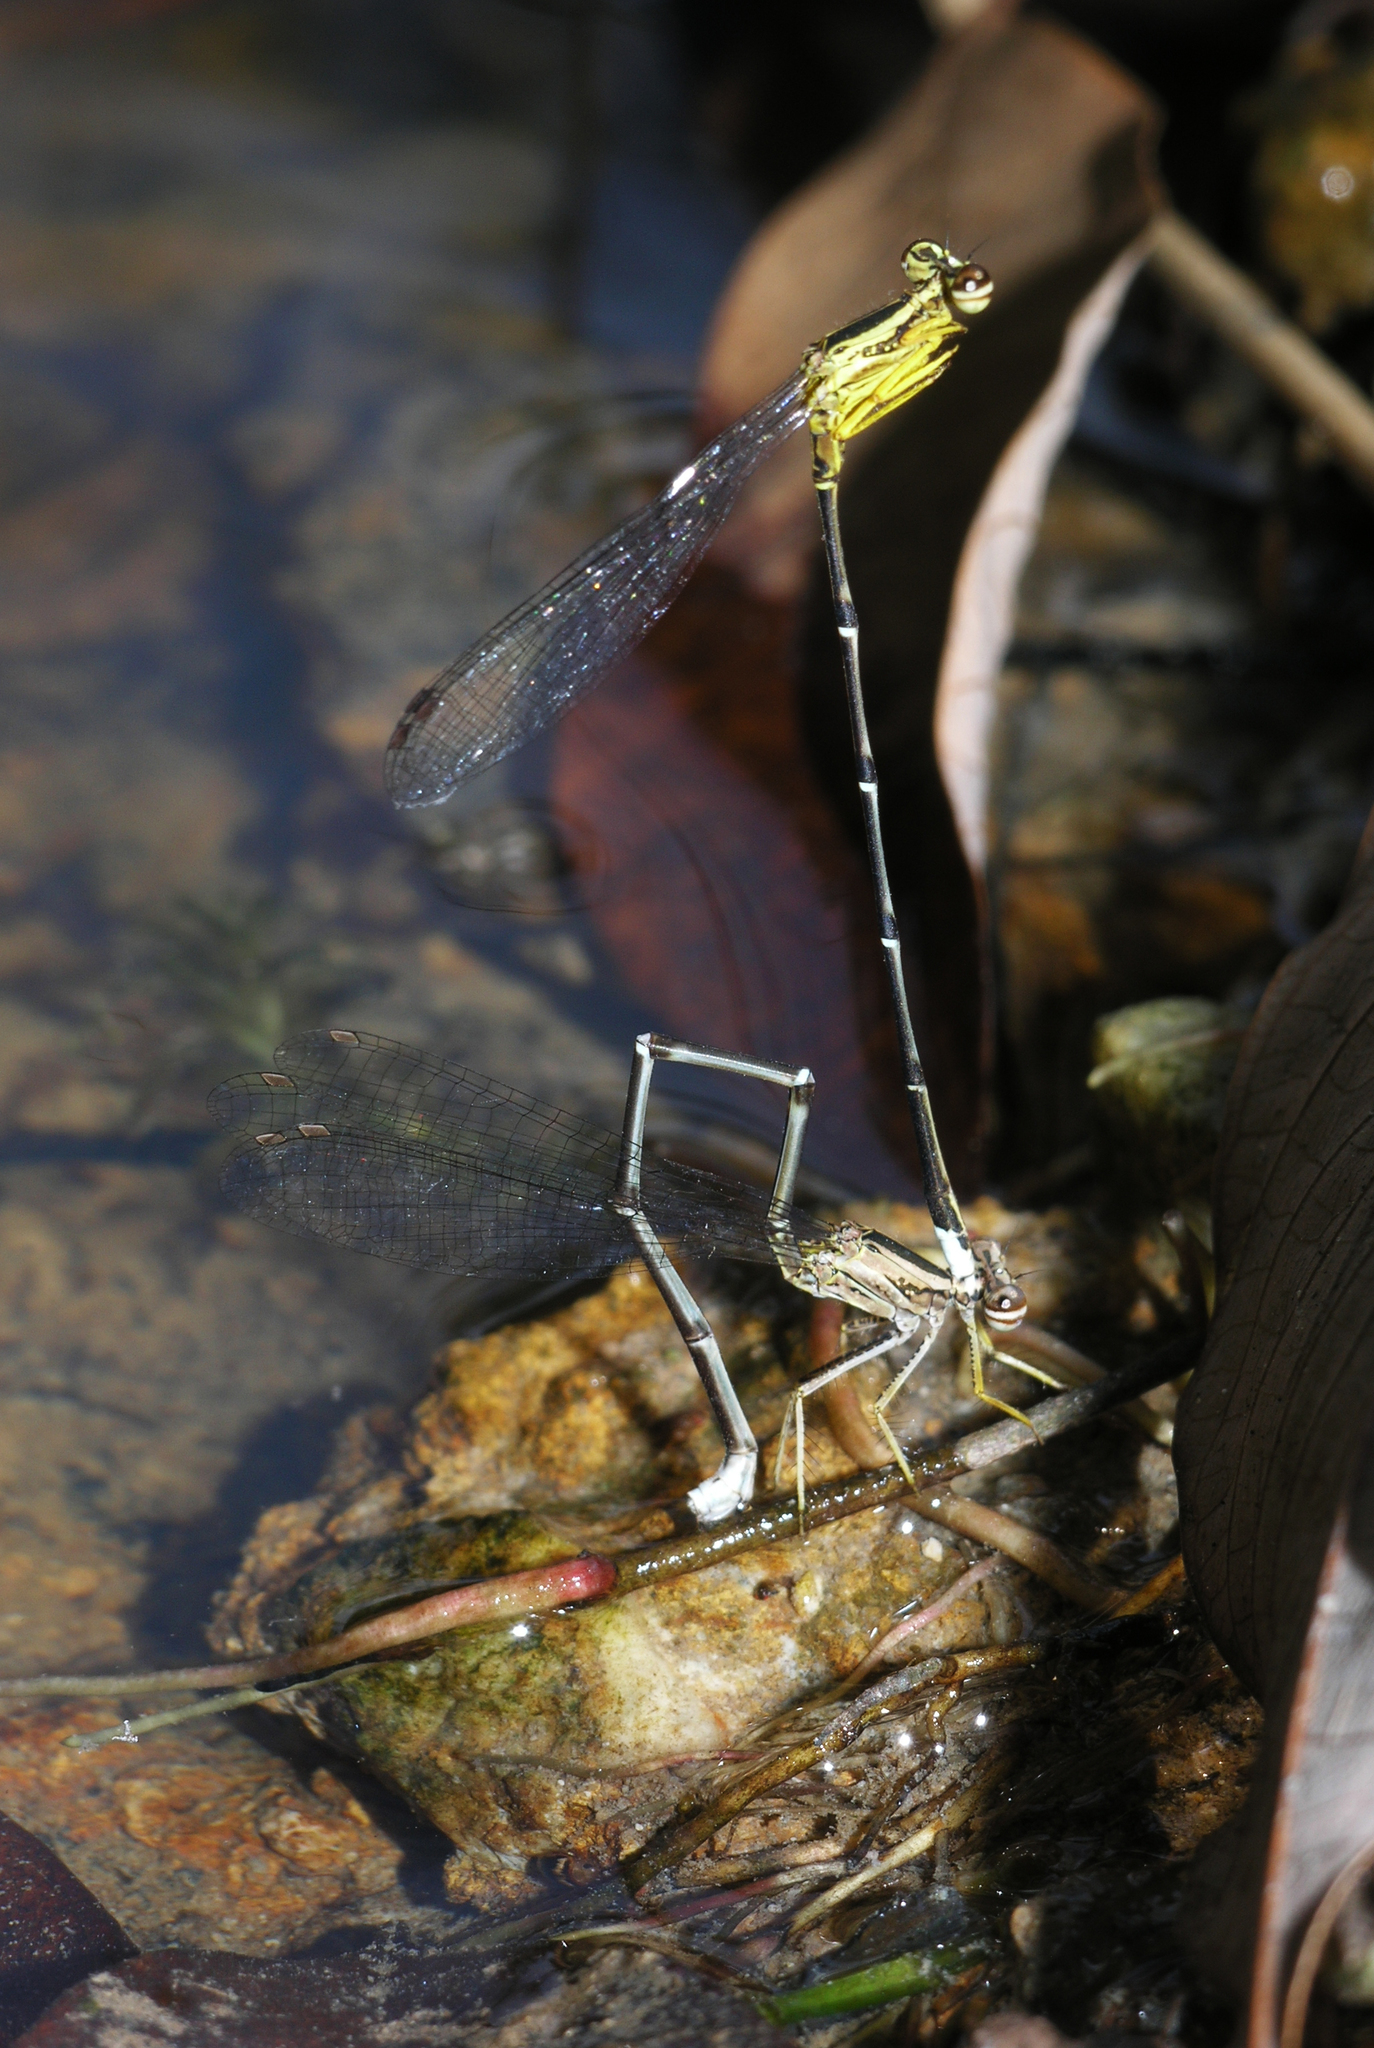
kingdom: Animalia
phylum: Arthropoda
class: Insecta
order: Odonata
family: Platycnemididae
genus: Copera
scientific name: Copera marginipes
